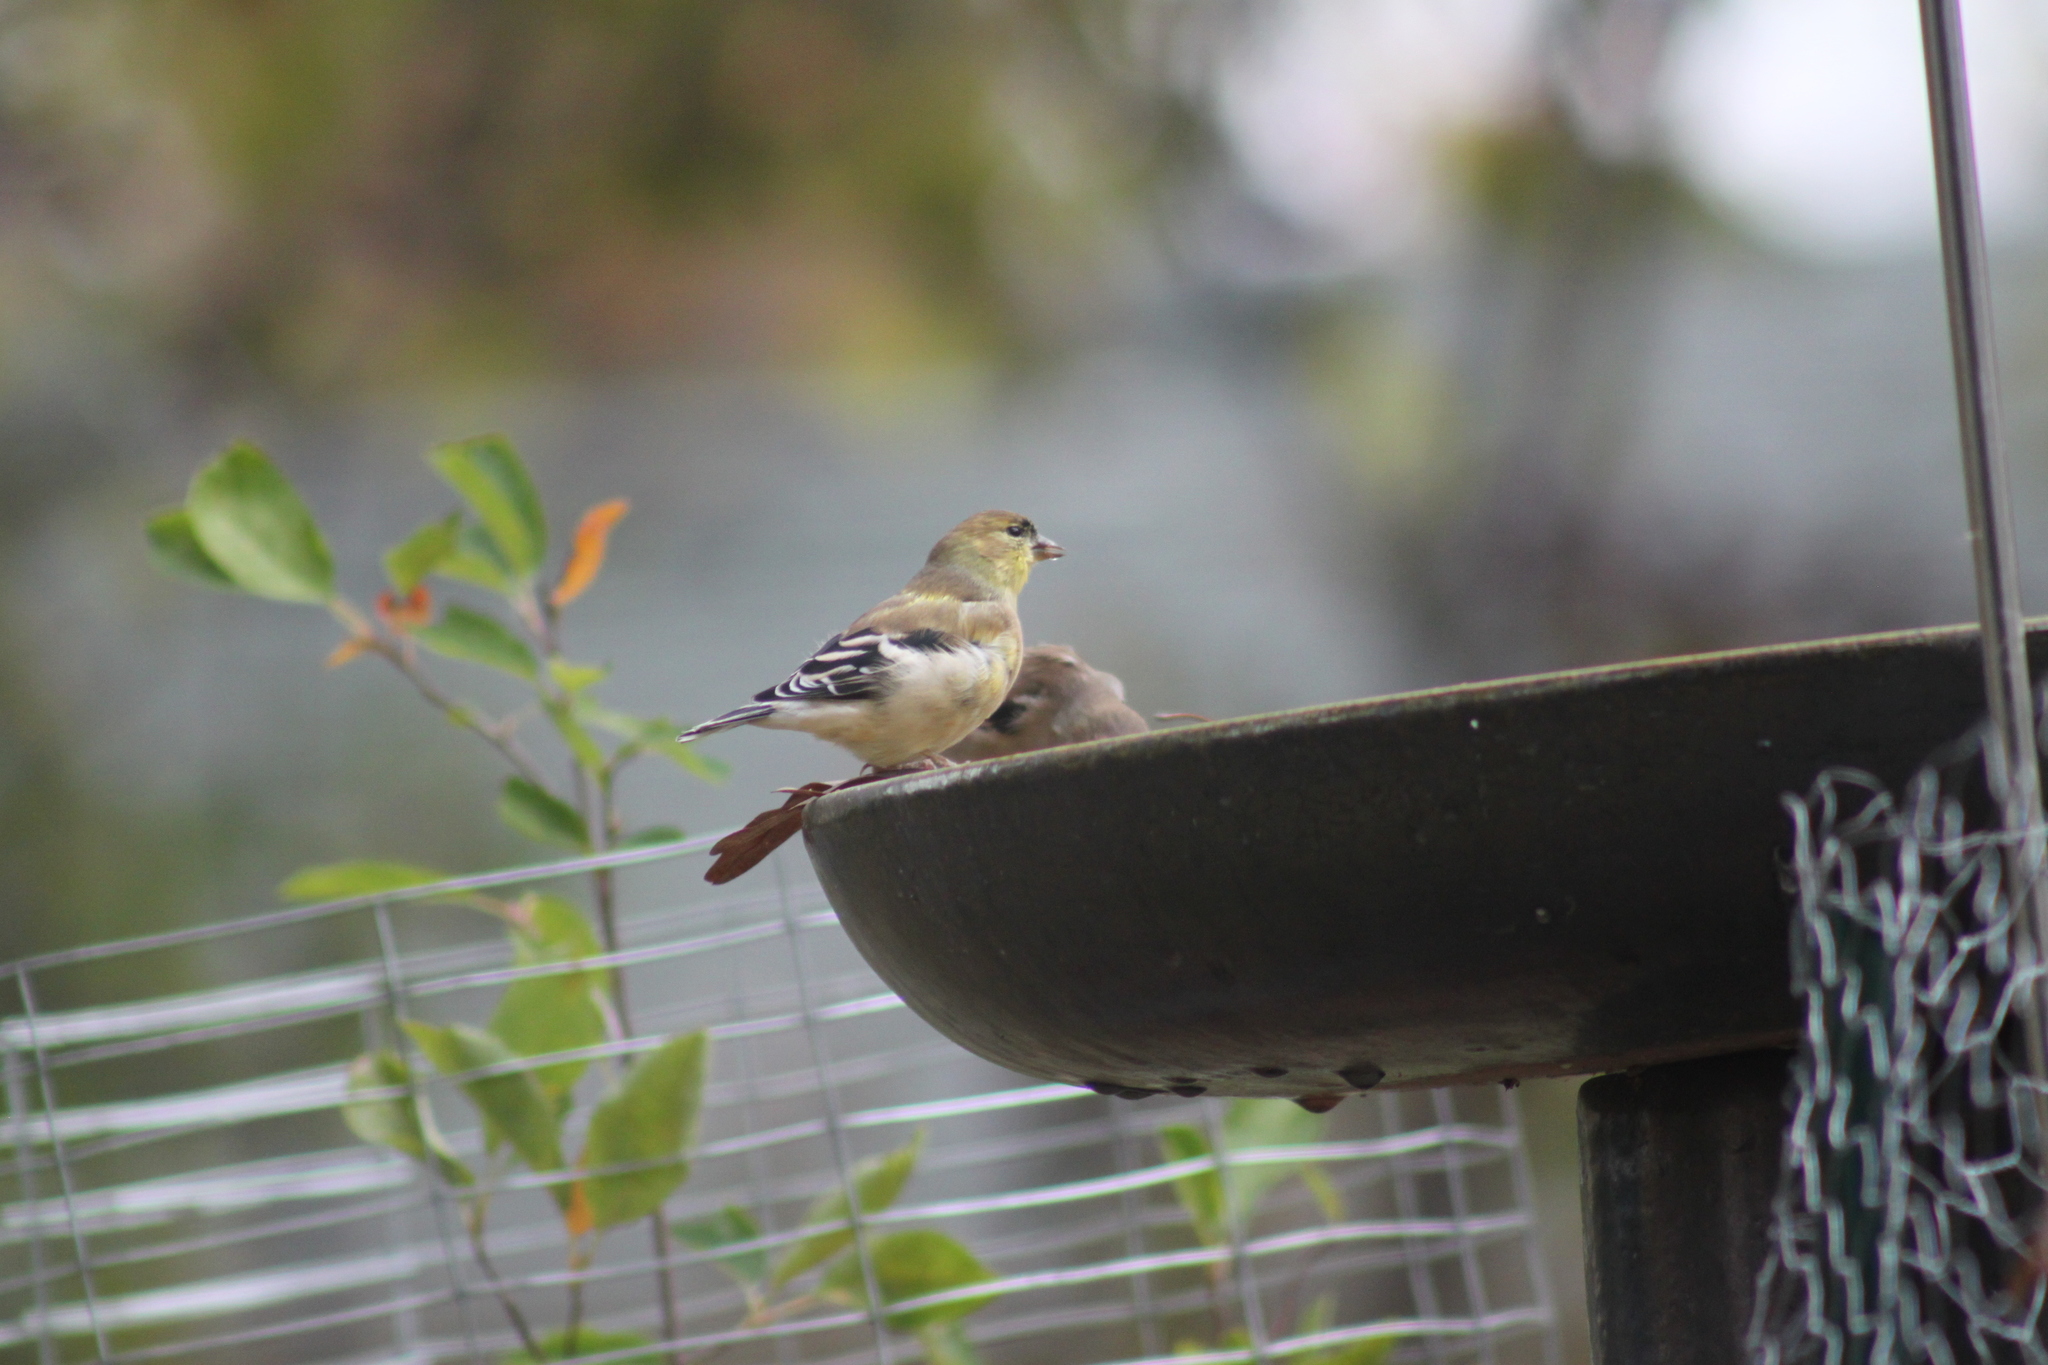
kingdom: Animalia
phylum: Chordata
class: Aves
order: Passeriformes
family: Fringillidae
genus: Spinus
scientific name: Spinus tristis
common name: American goldfinch
